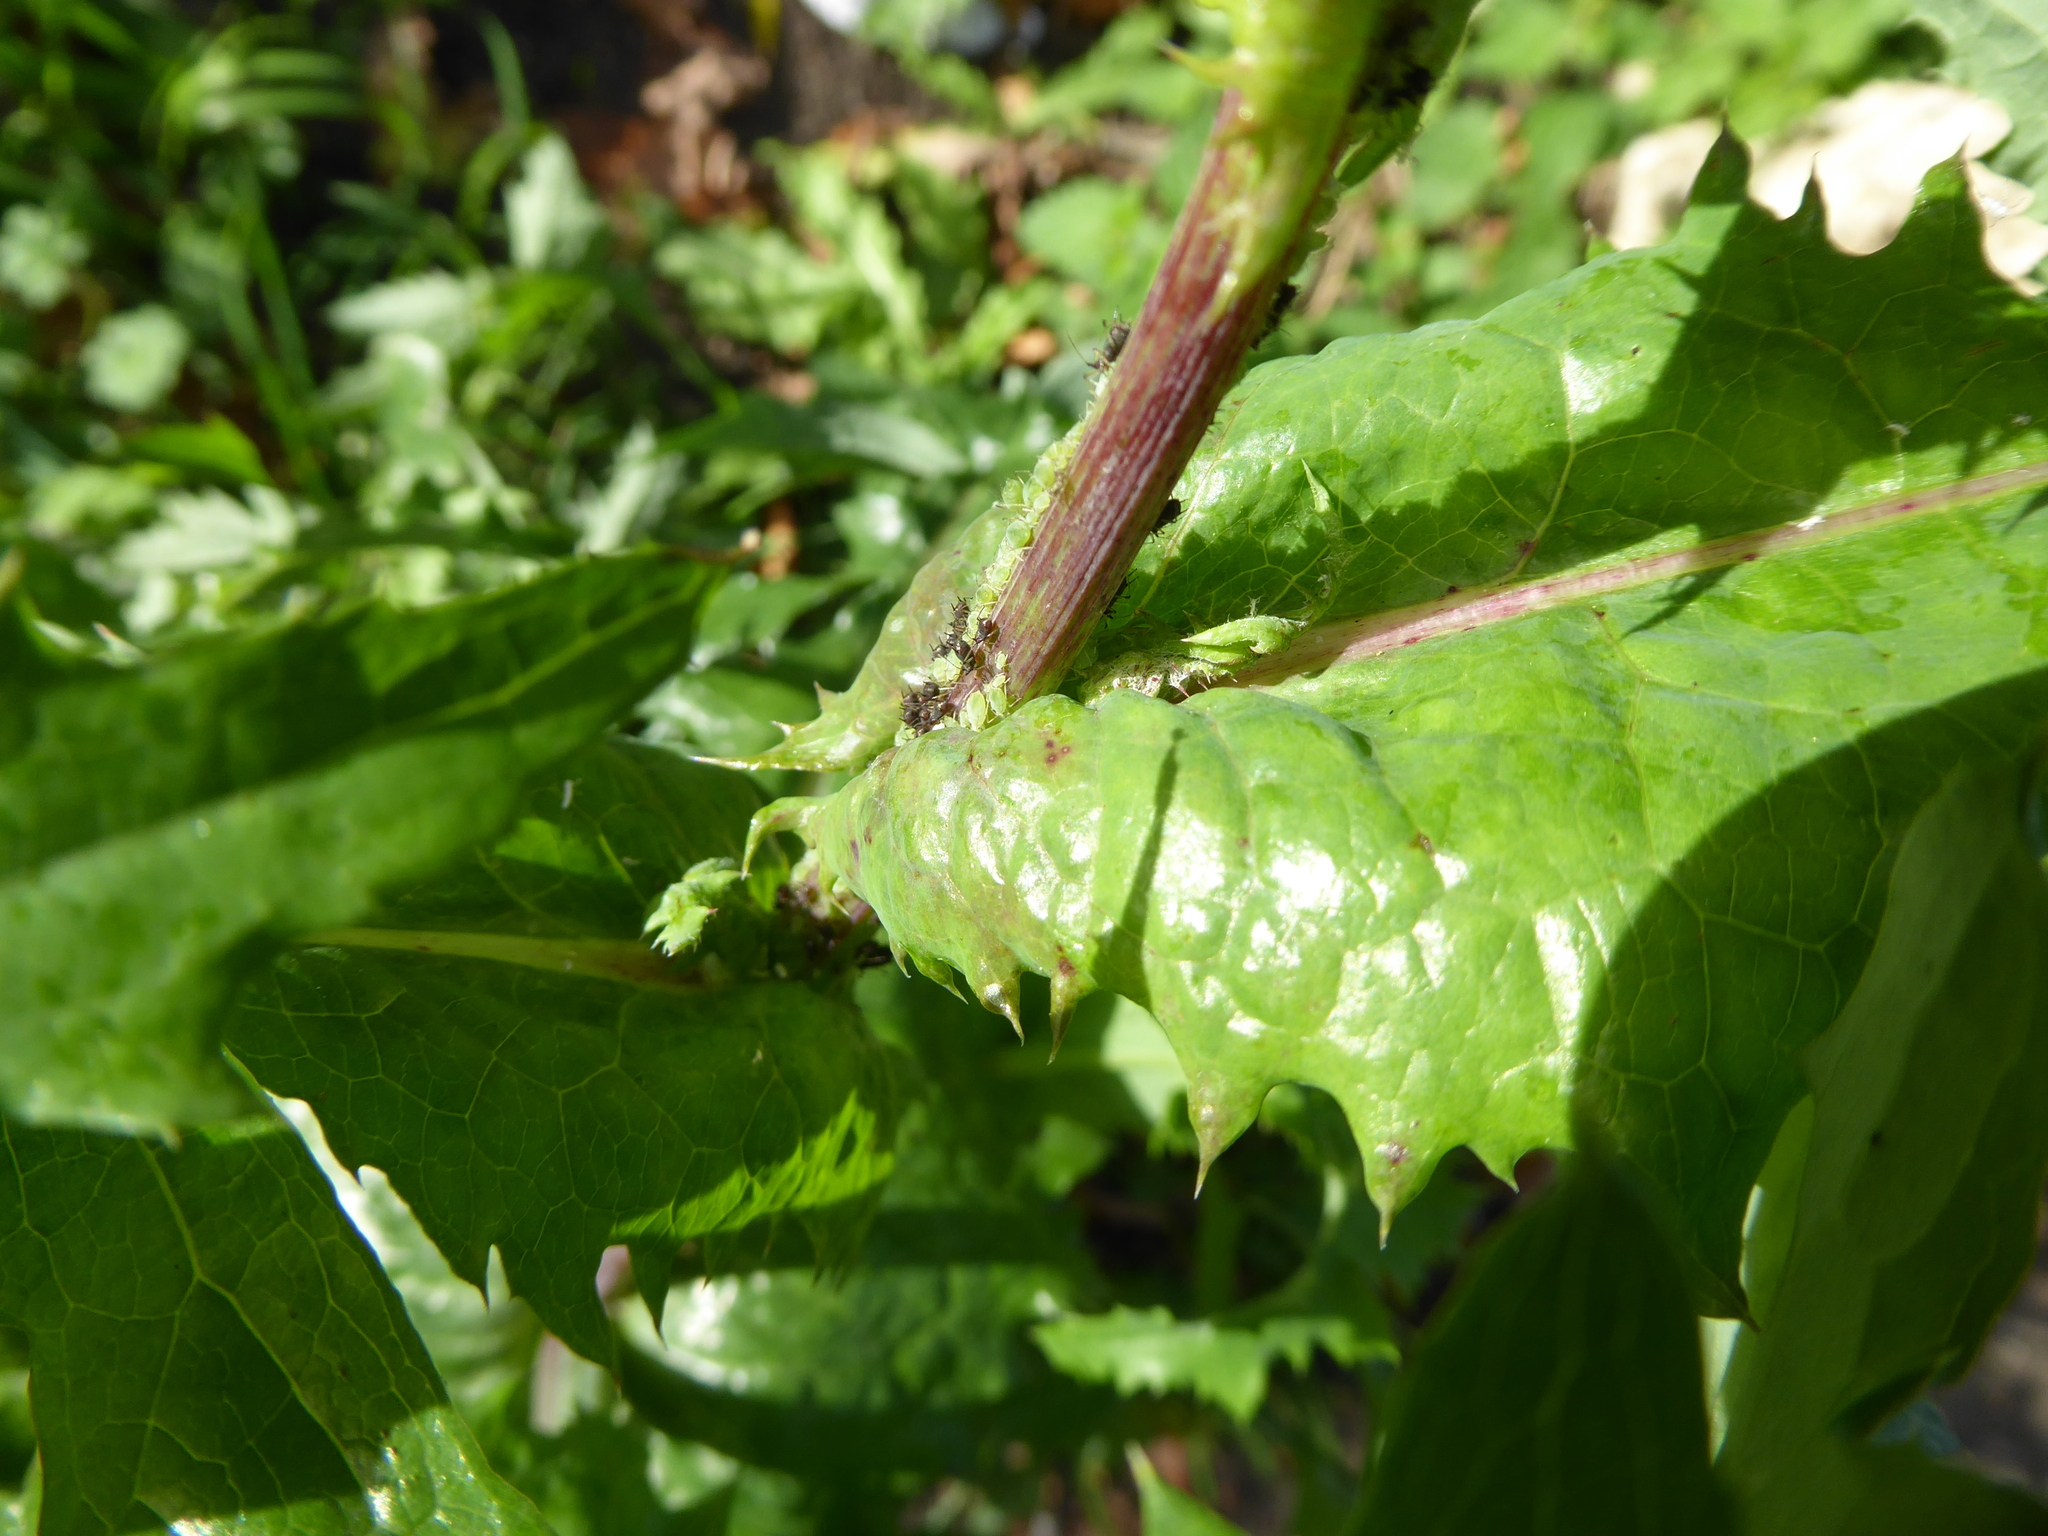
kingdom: Plantae
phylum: Tracheophyta
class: Magnoliopsida
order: Asterales
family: Asteraceae
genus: Sonchus
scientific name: Sonchus oleraceus
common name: Common sowthistle
